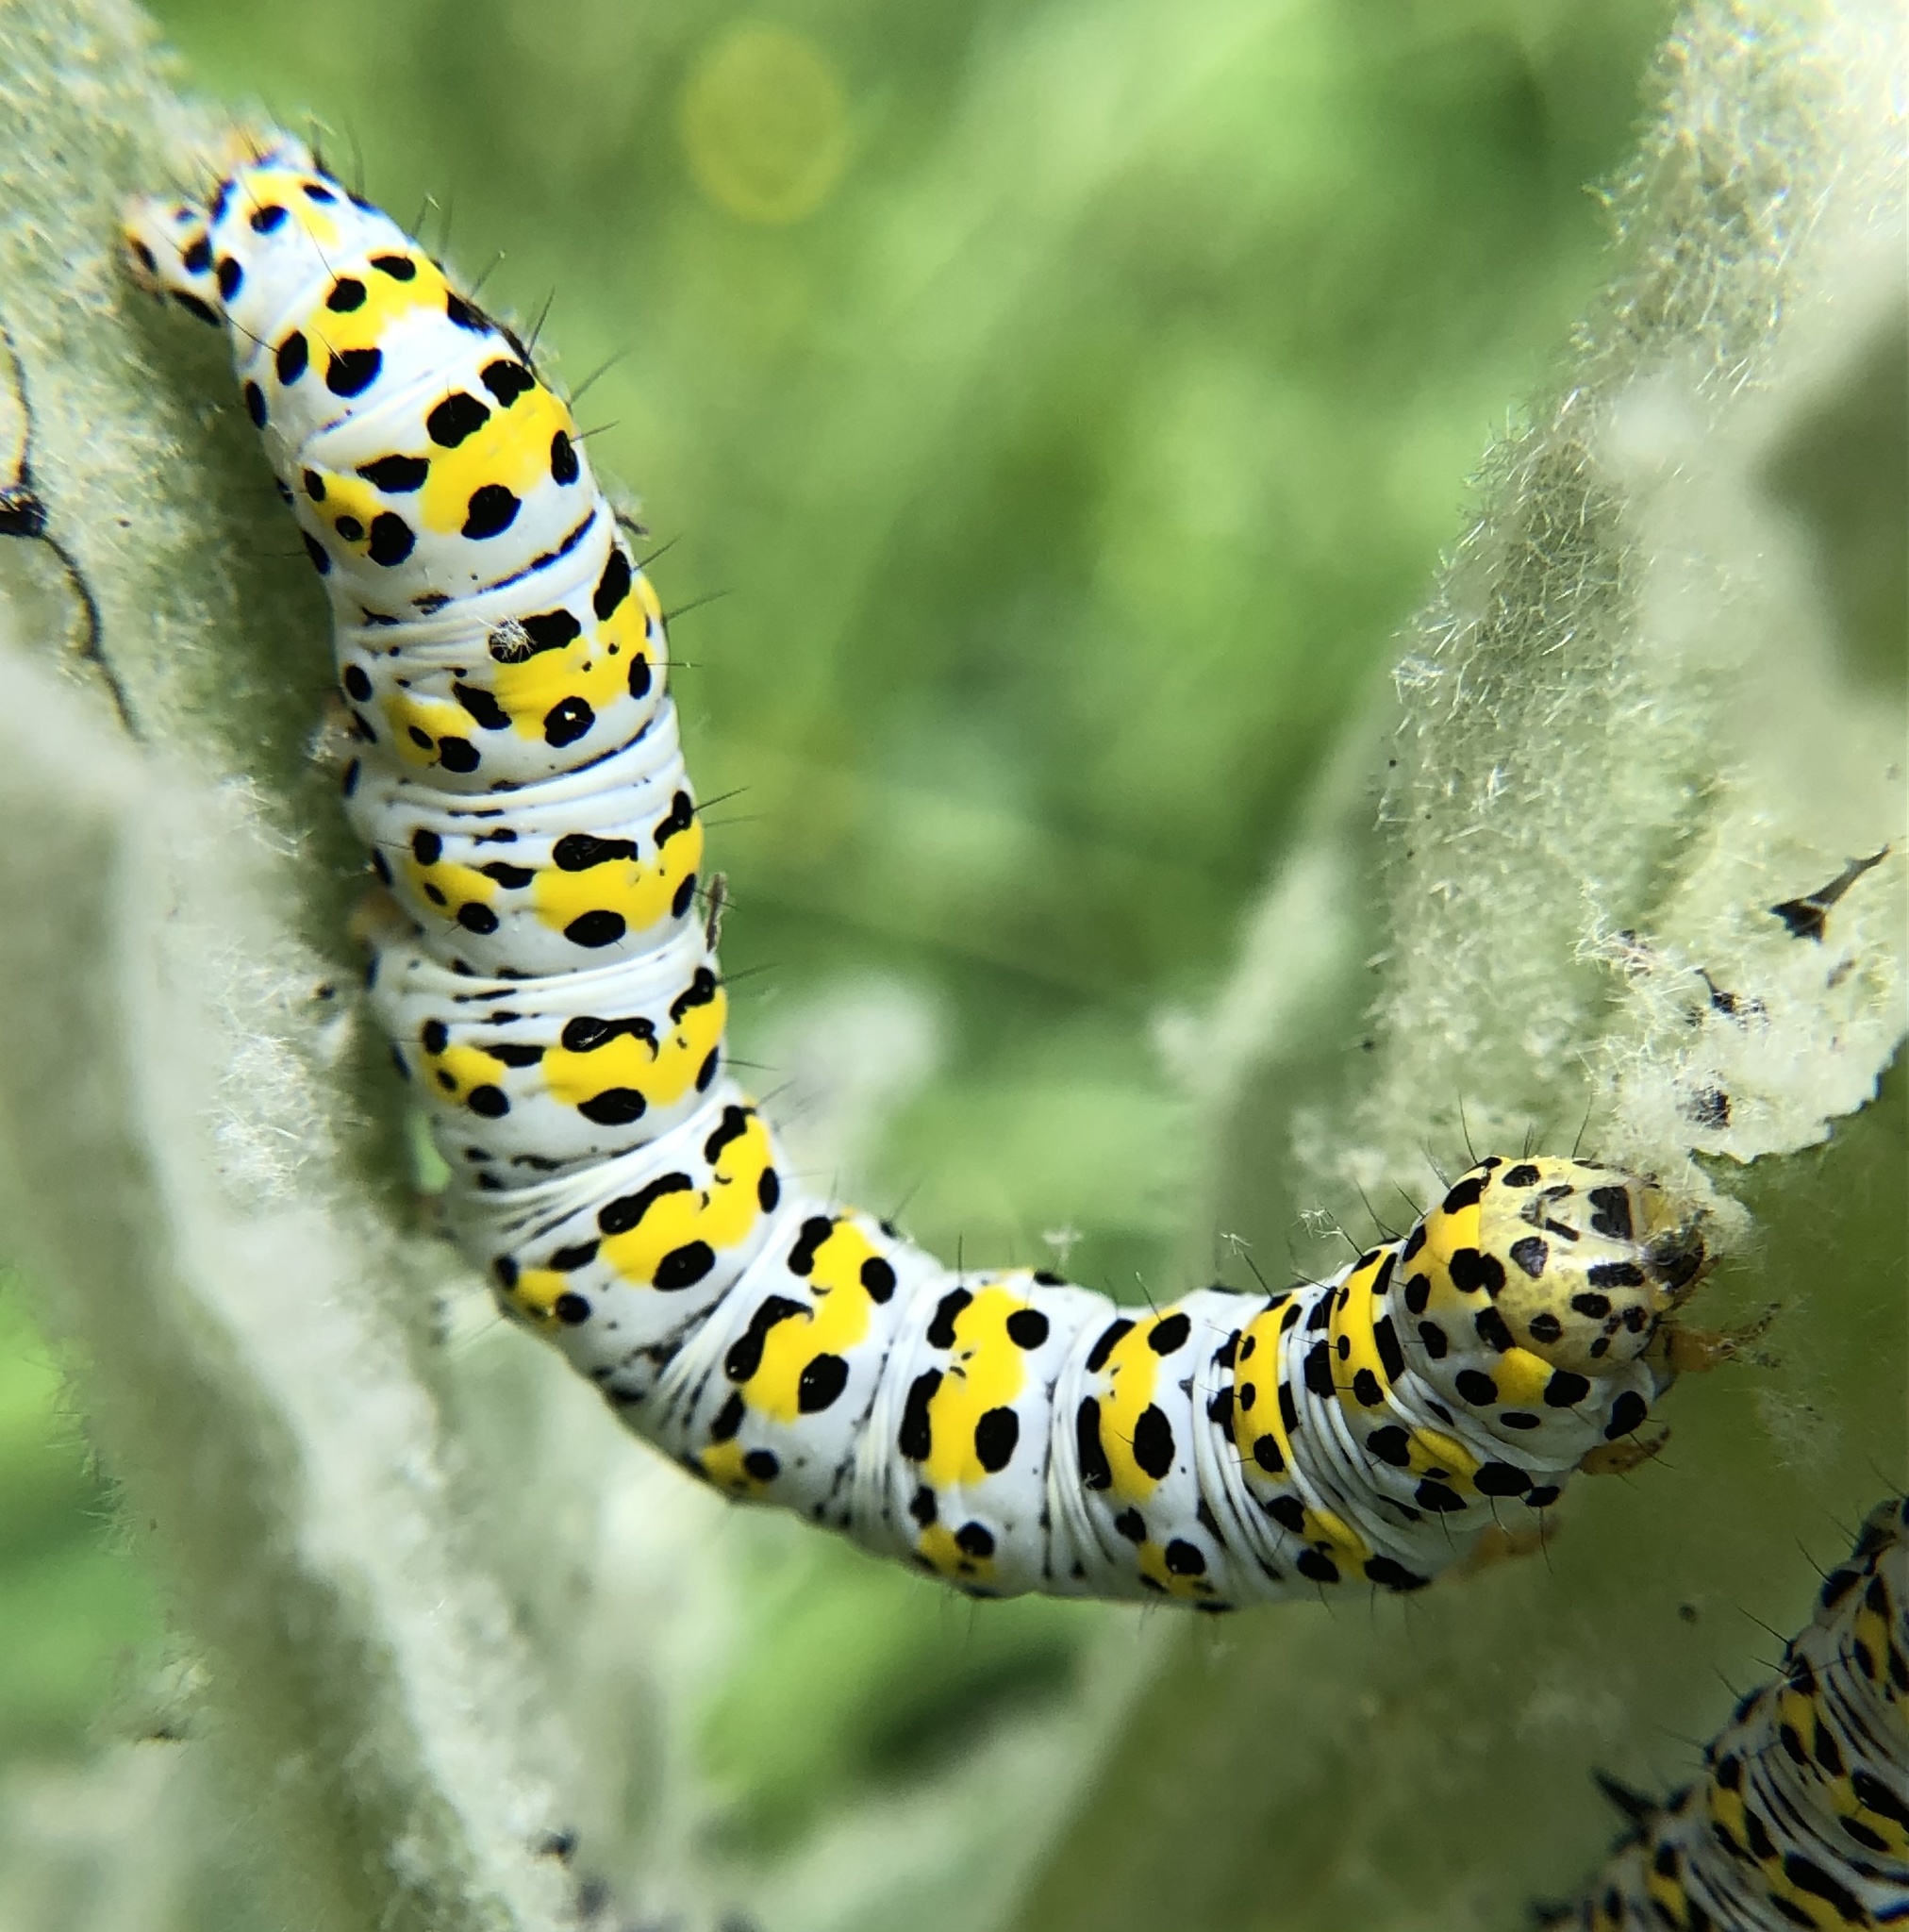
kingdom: Animalia
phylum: Arthropoda
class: Insecta
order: Lepidoptera
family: Noctuidae
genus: Cucullia
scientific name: Cucullia verbasci
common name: Mullein
